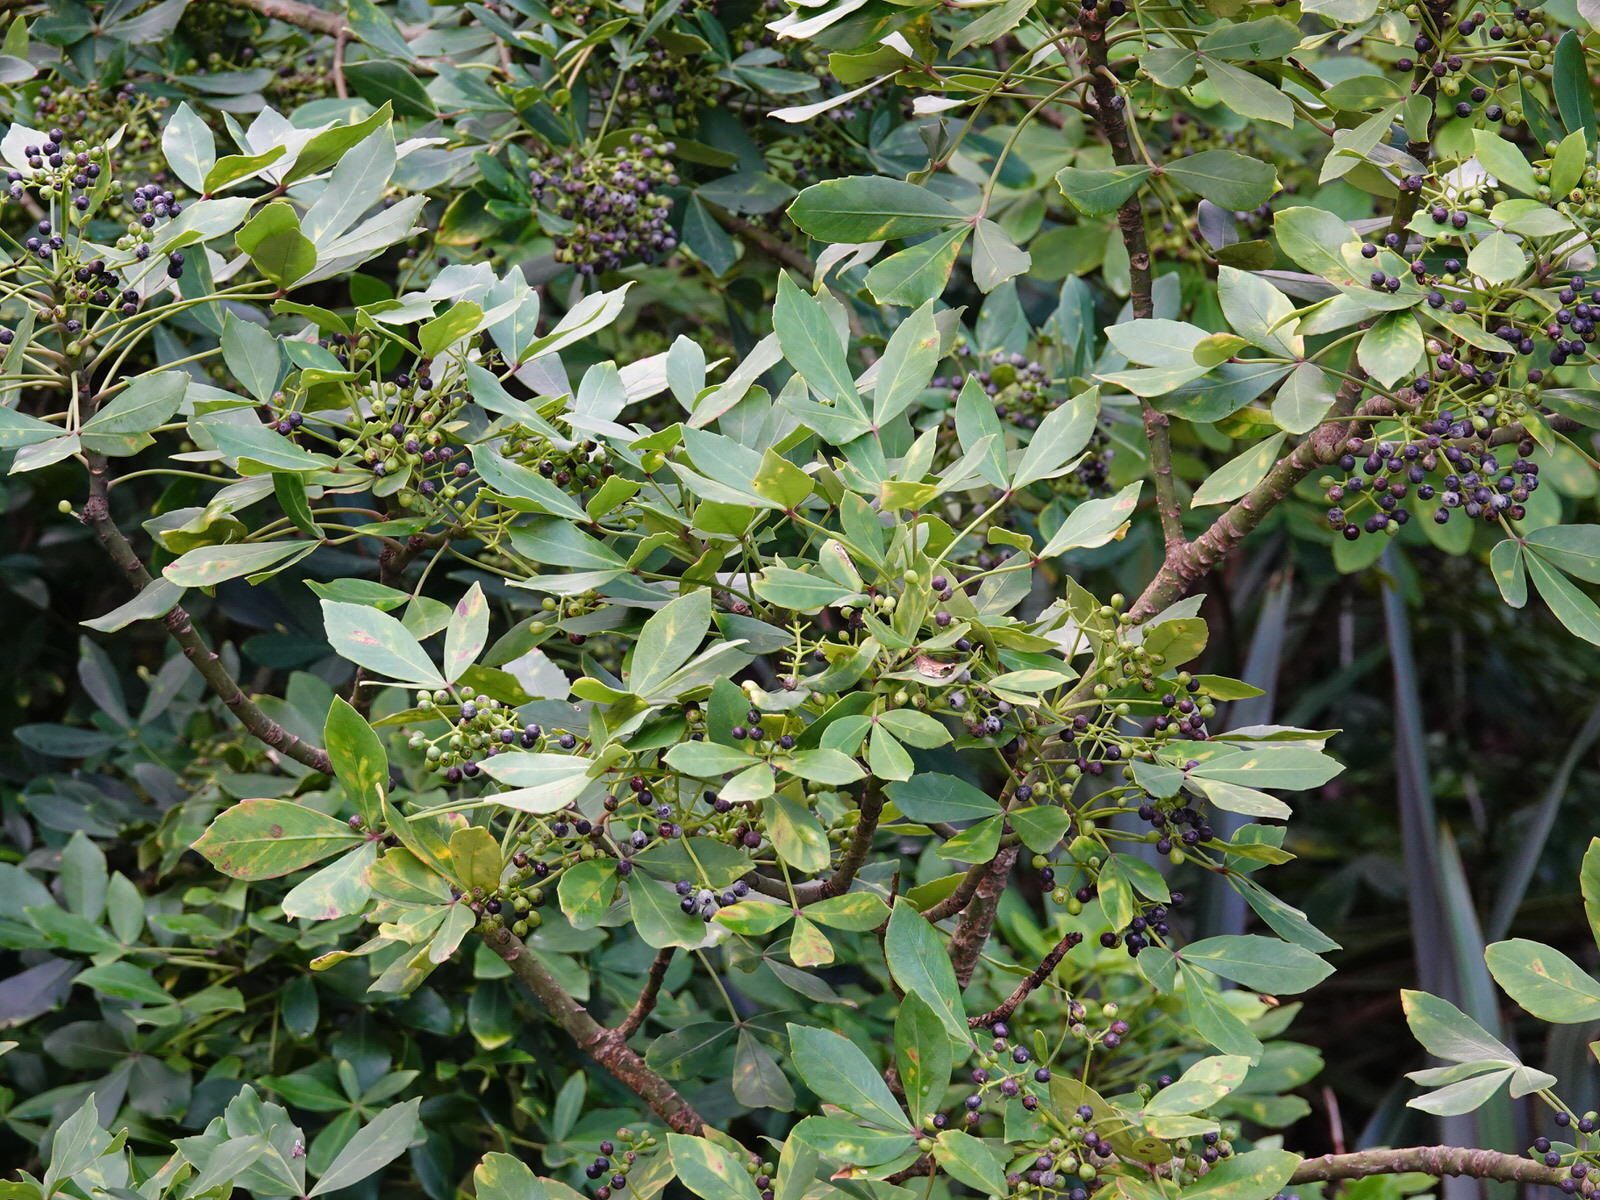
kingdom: Plantae
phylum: Tracheophyta
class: Magnoliopsida
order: Apiales
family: Araliaceae
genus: Pseudopanax
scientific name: Pseudopanax lessonii
